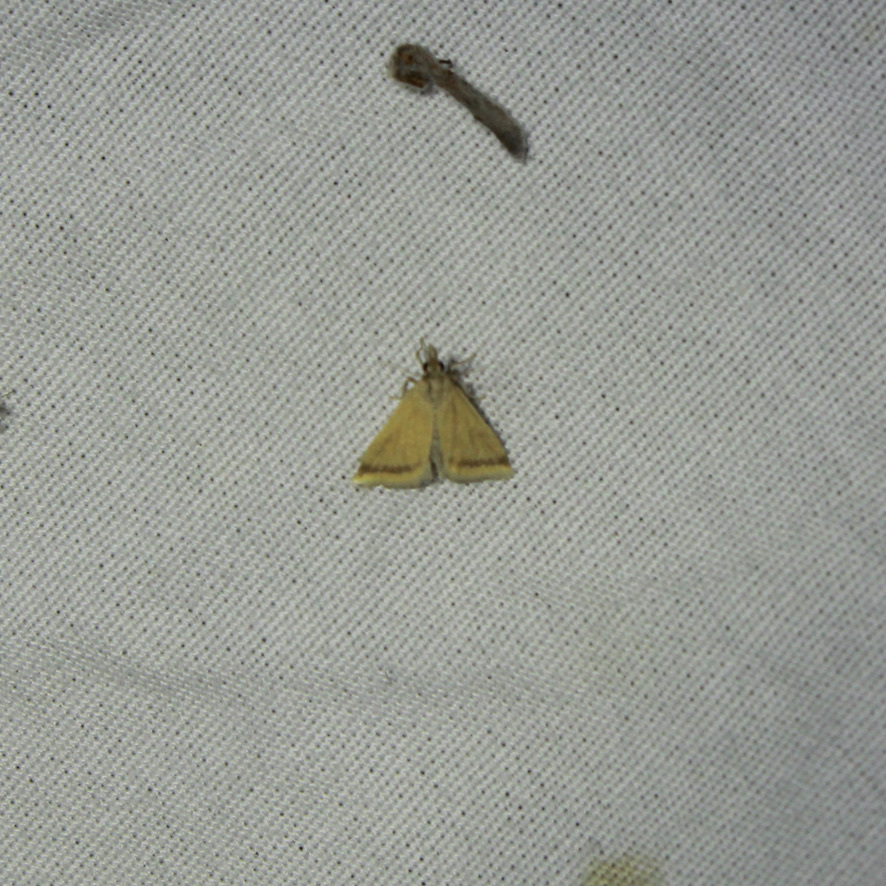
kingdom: Animalia
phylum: Arthropoda
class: Insecta
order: Lepidoptera
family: Crambidae
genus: Microtheoris
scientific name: Microtheoris vibicalis
